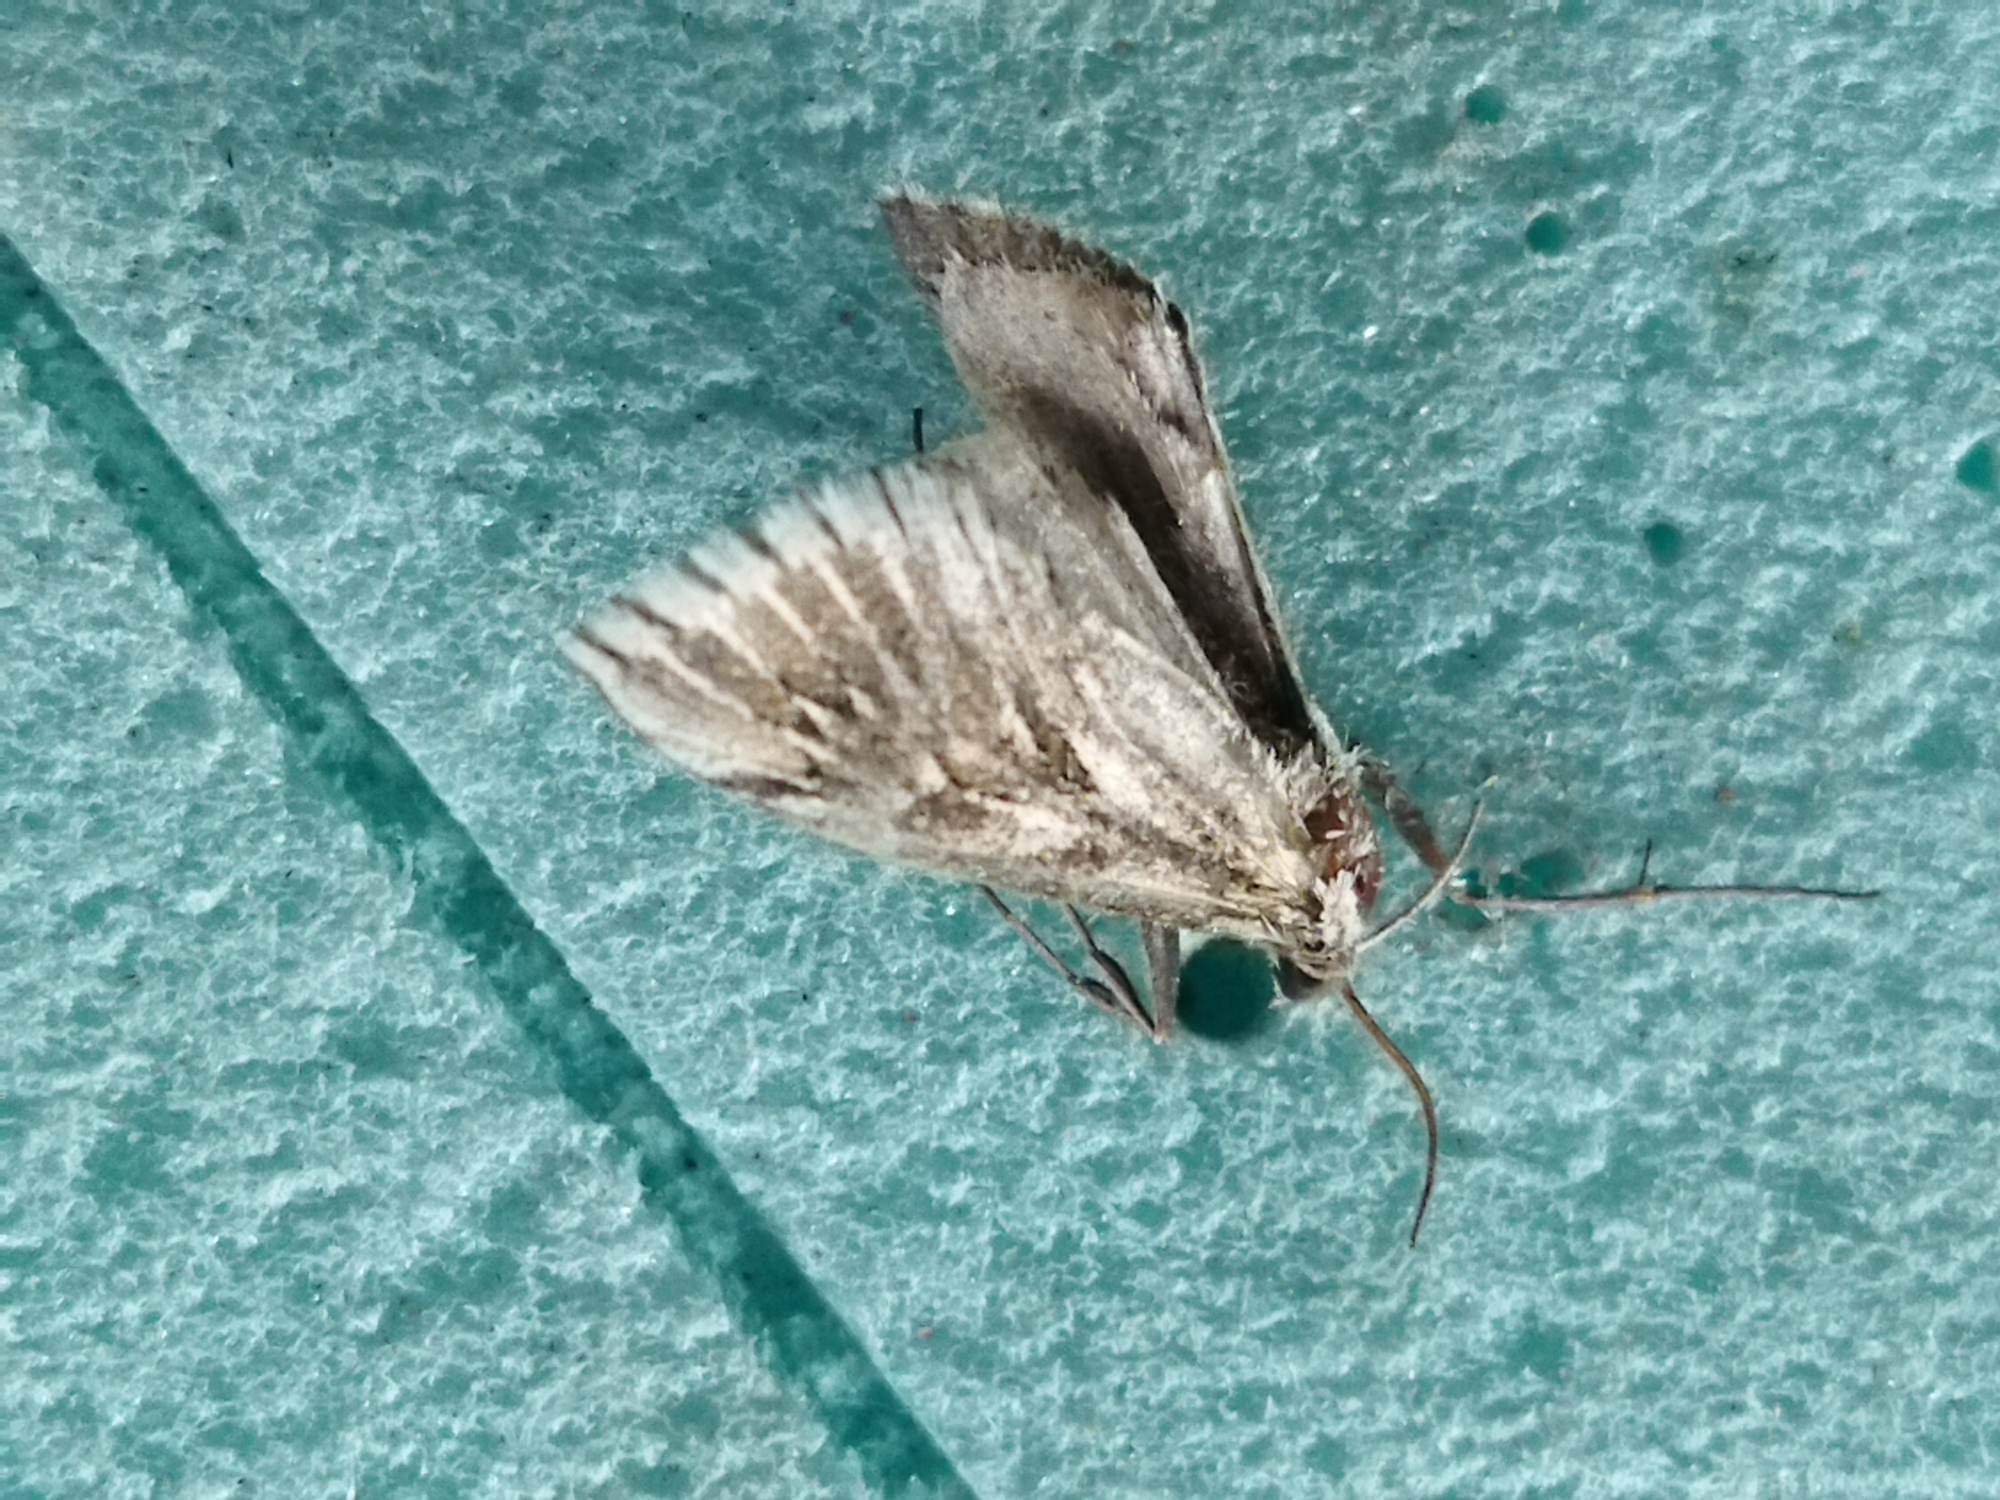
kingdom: Animalia
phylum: Arthropoda
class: Insecta
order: Lepidoptera
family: Crambidae
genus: Cynaeda
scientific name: Cynaeda dentalis
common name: Starry pearl
